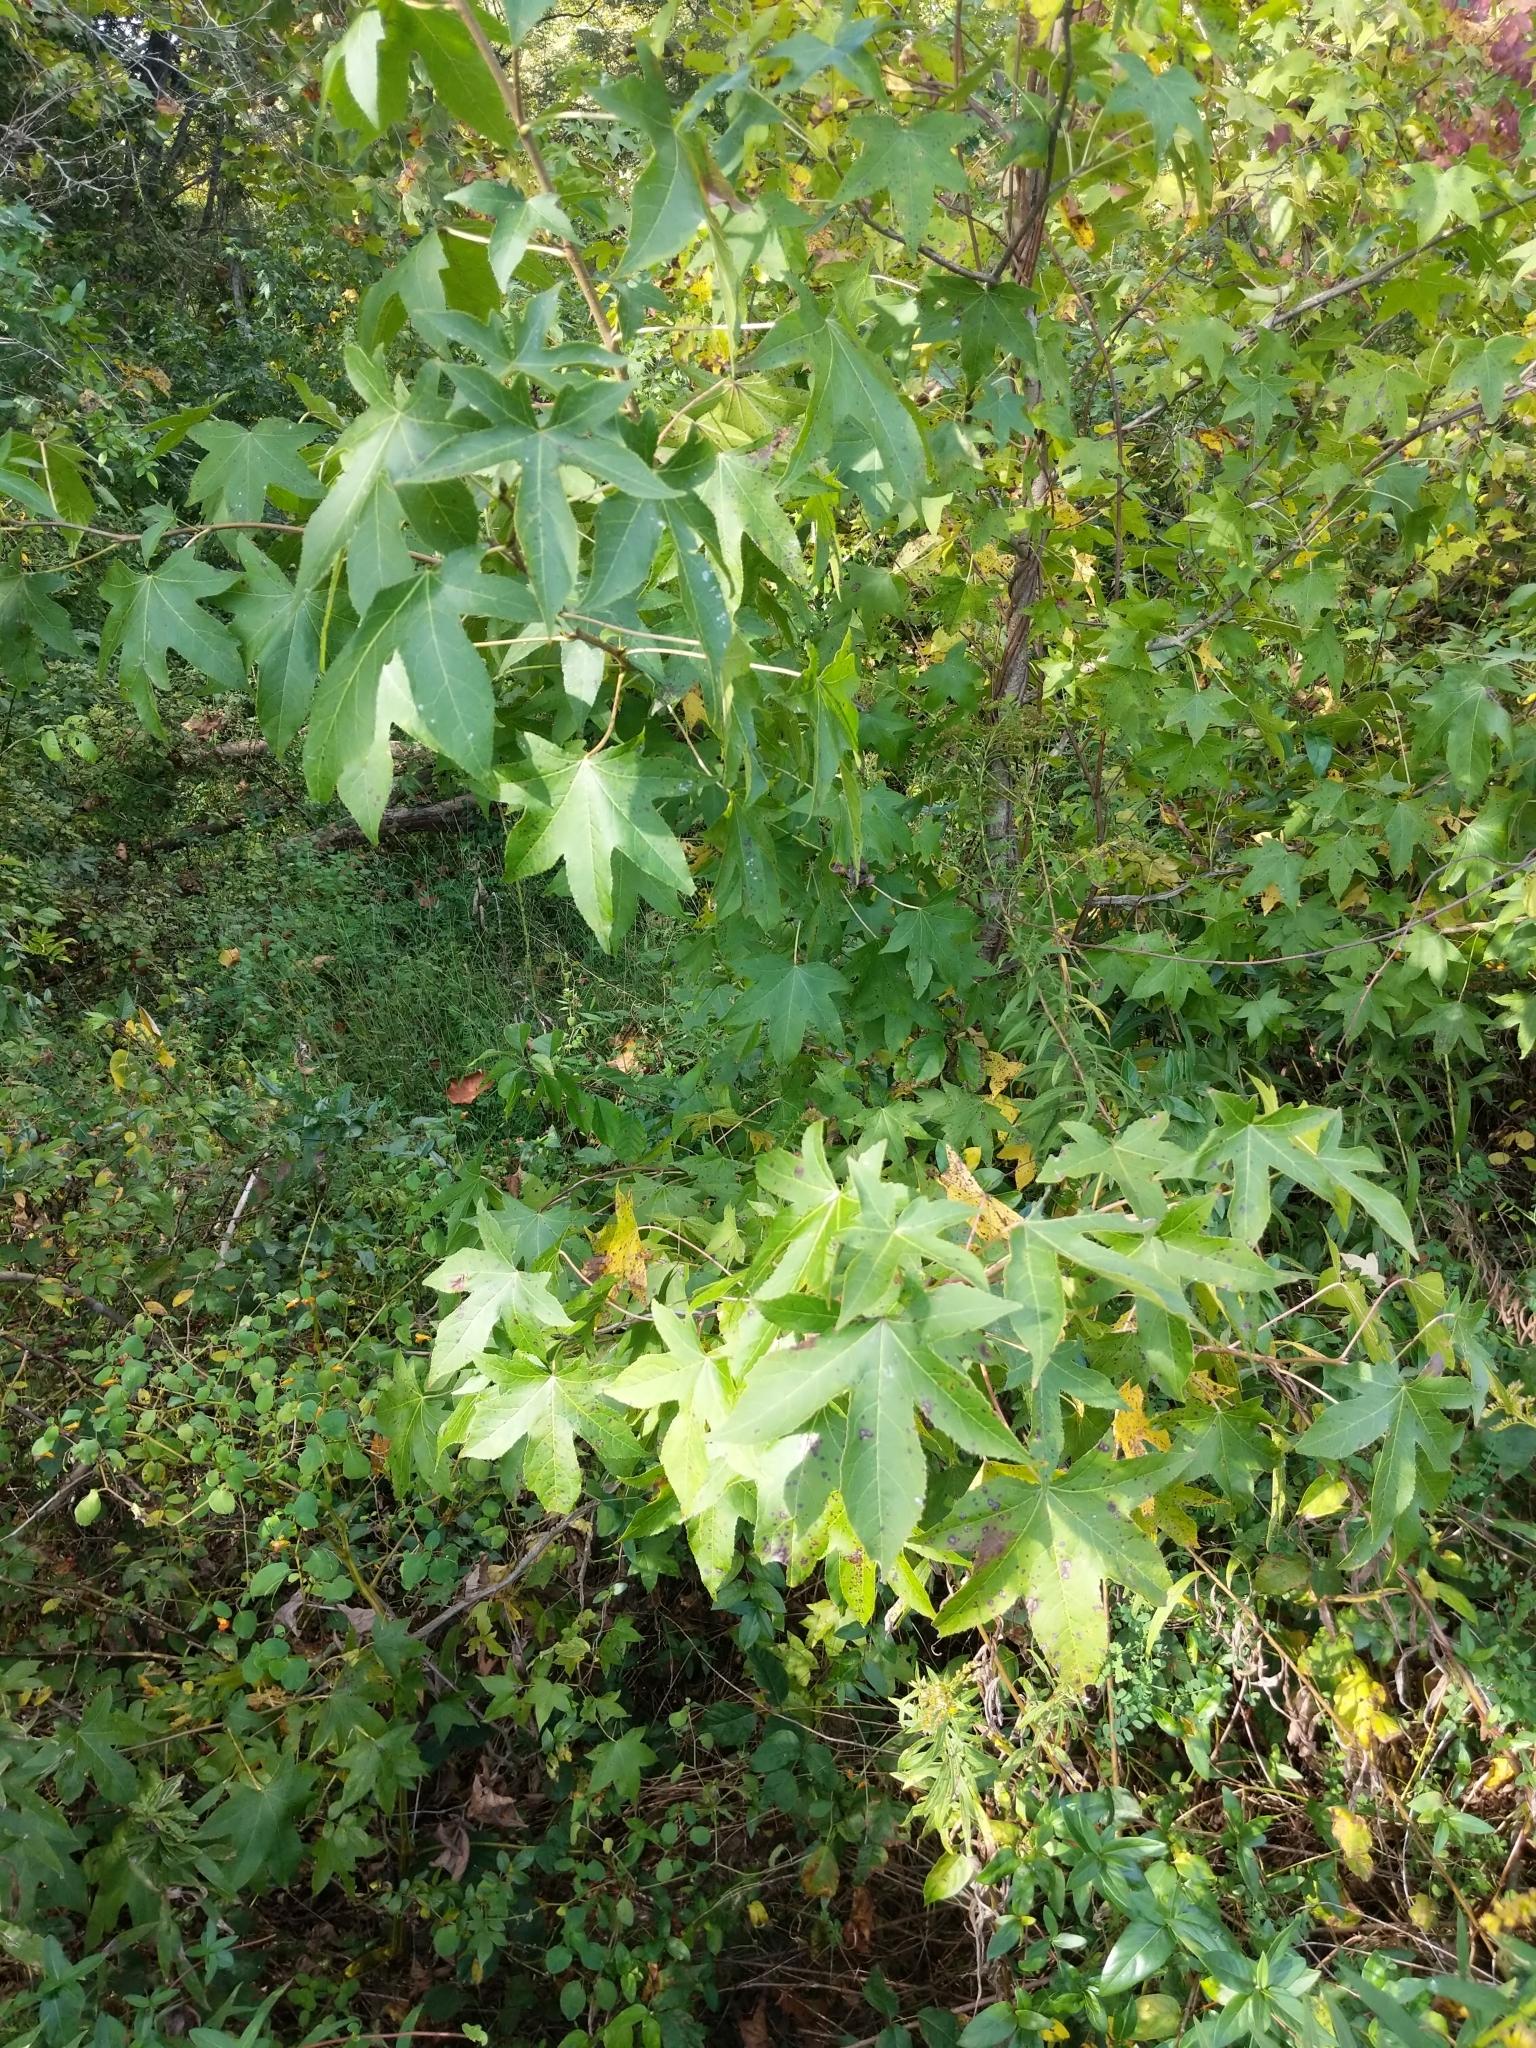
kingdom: Plantae
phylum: Tracheophyta
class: Magnoliopsida
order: Saxifragales
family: Altingiaceae
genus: Liquidambar
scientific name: Liquidambar styraciflua
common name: Sweet gum
